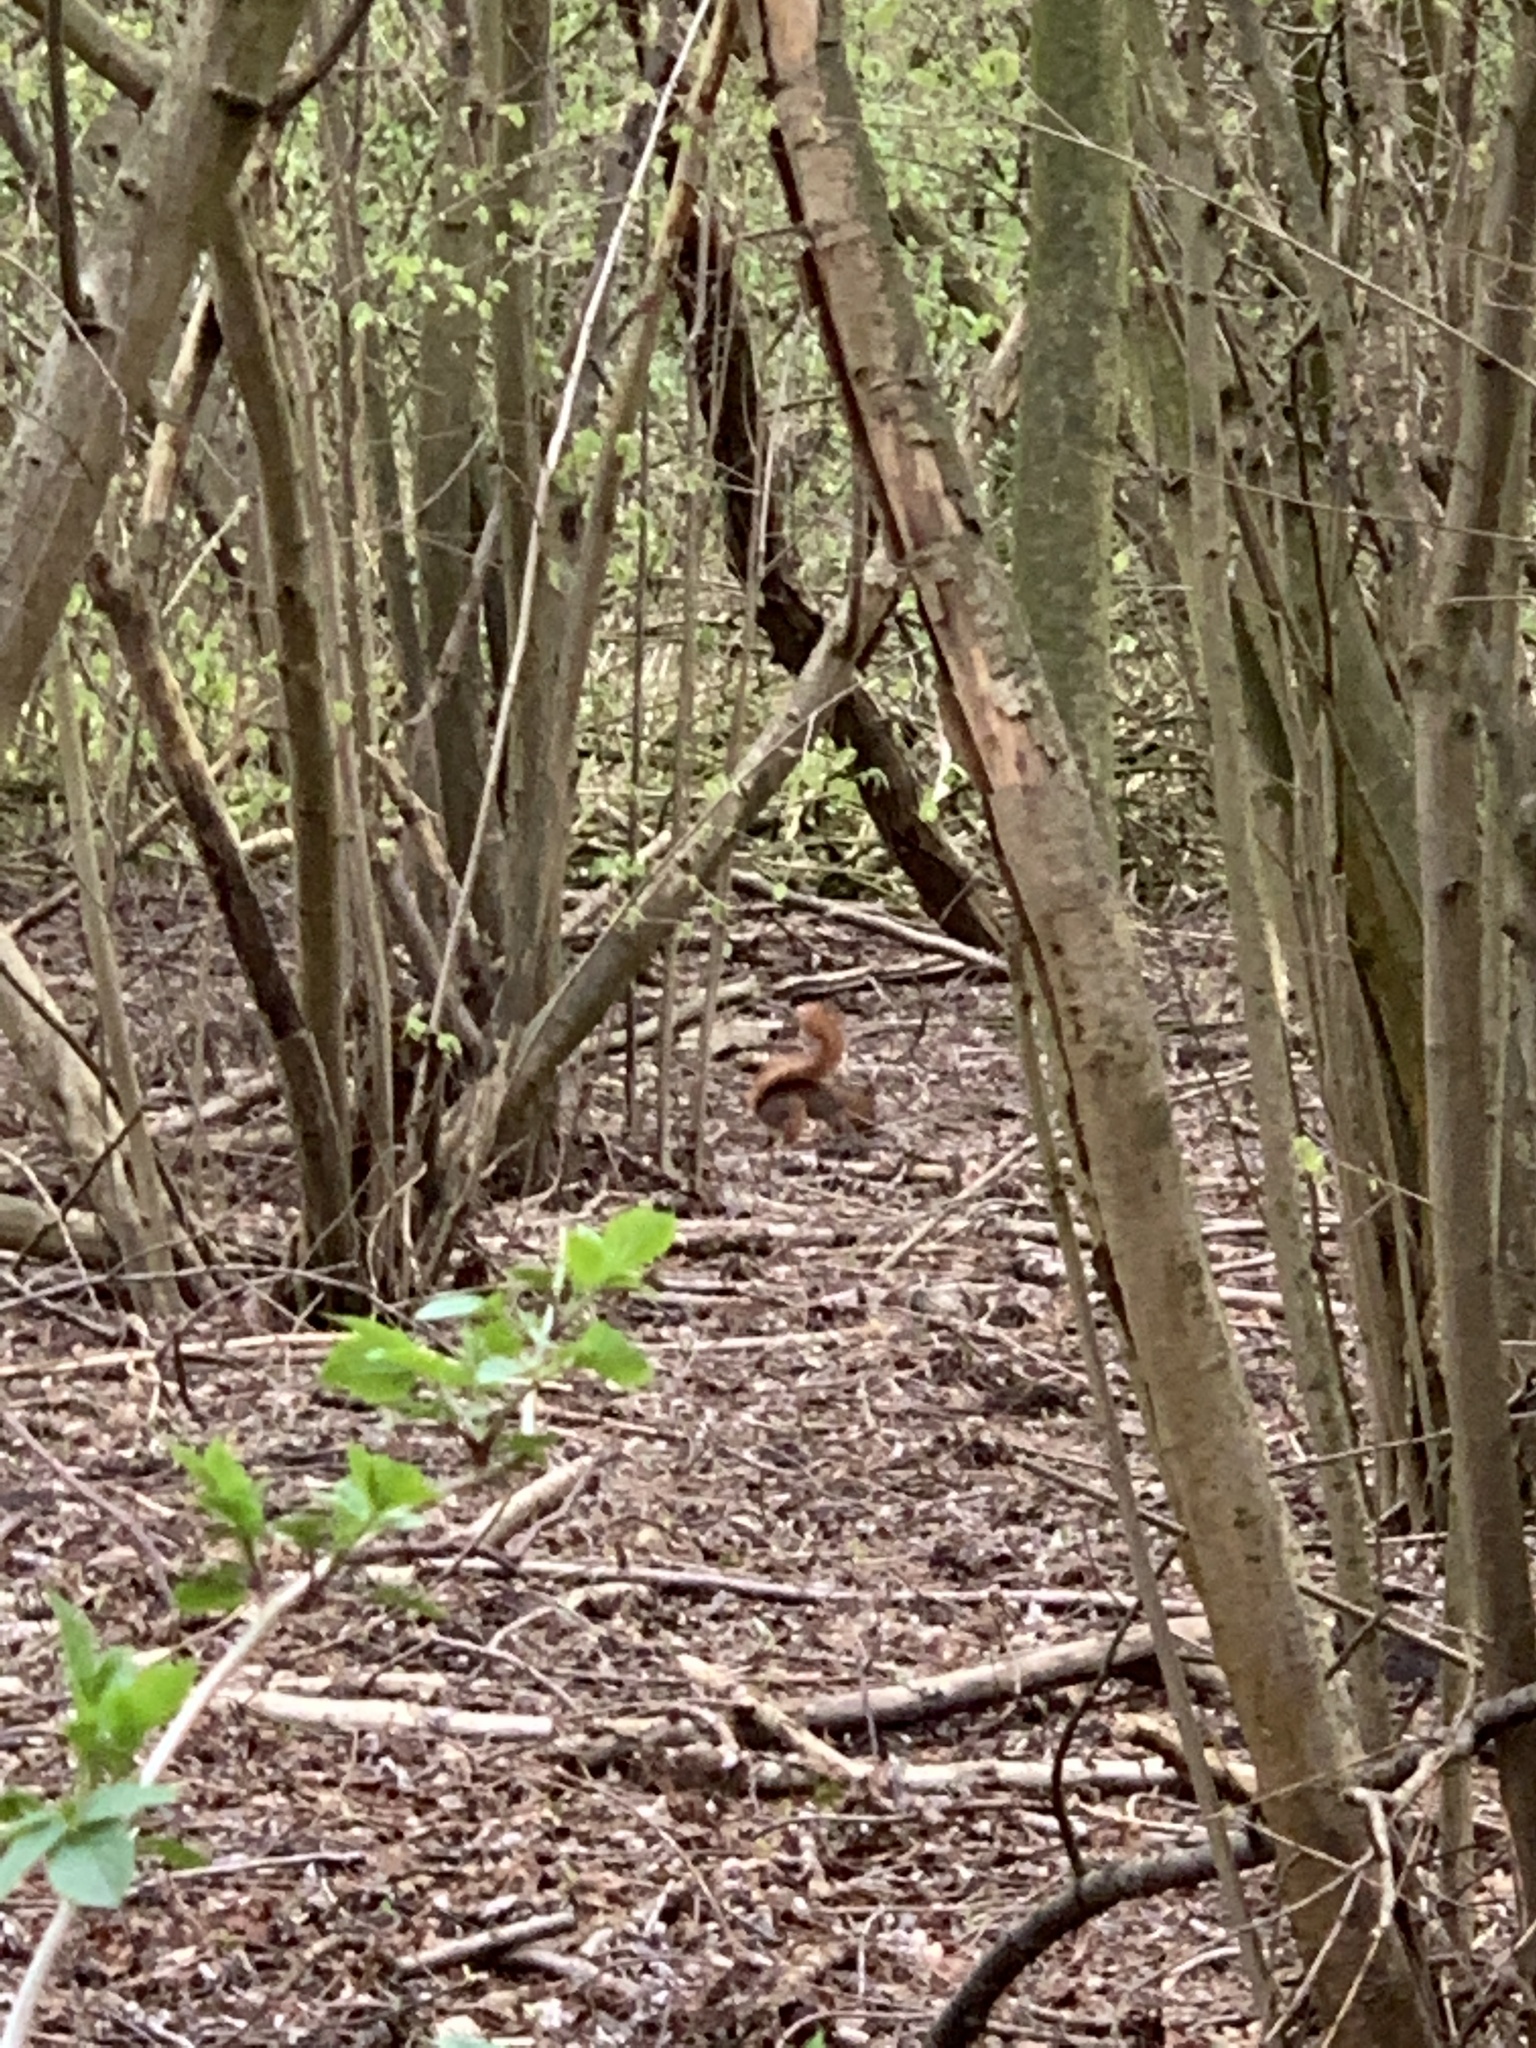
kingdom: Animalia
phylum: Chordata
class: Mammalia
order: Rodentia
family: Sciuridae
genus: Sciurus
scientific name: Sciurus vulgaris
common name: Eurasian red squirrel
